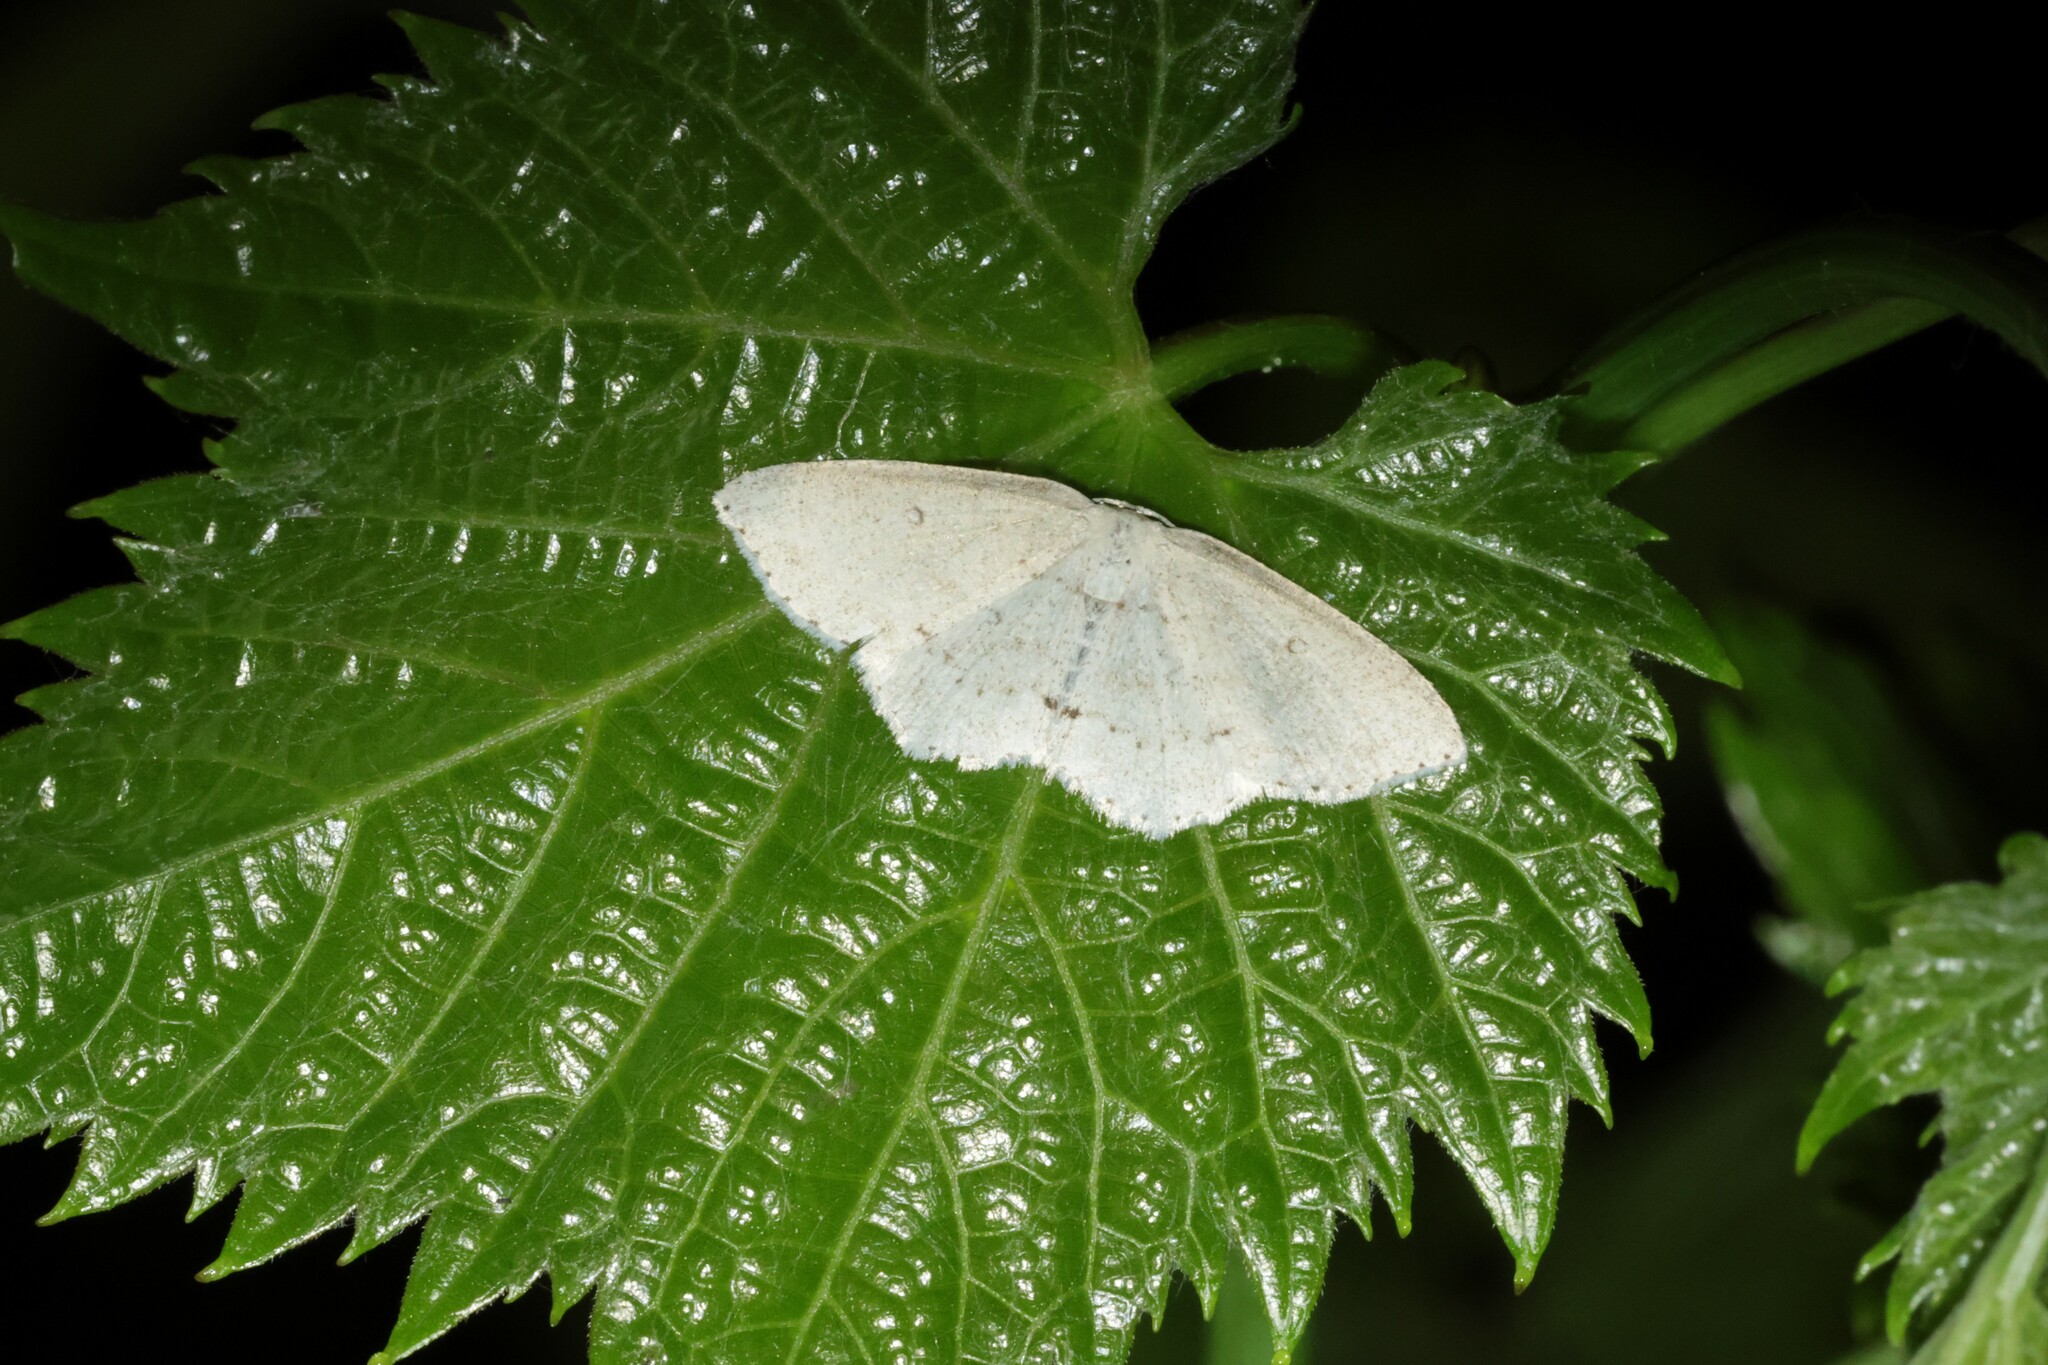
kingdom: Animalia
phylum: Arthropoda
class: Insecta
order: Lepidoptera
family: Geometridae
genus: Cyclophora
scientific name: Cyclophora pendulinaria
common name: Sweet fern geometer
